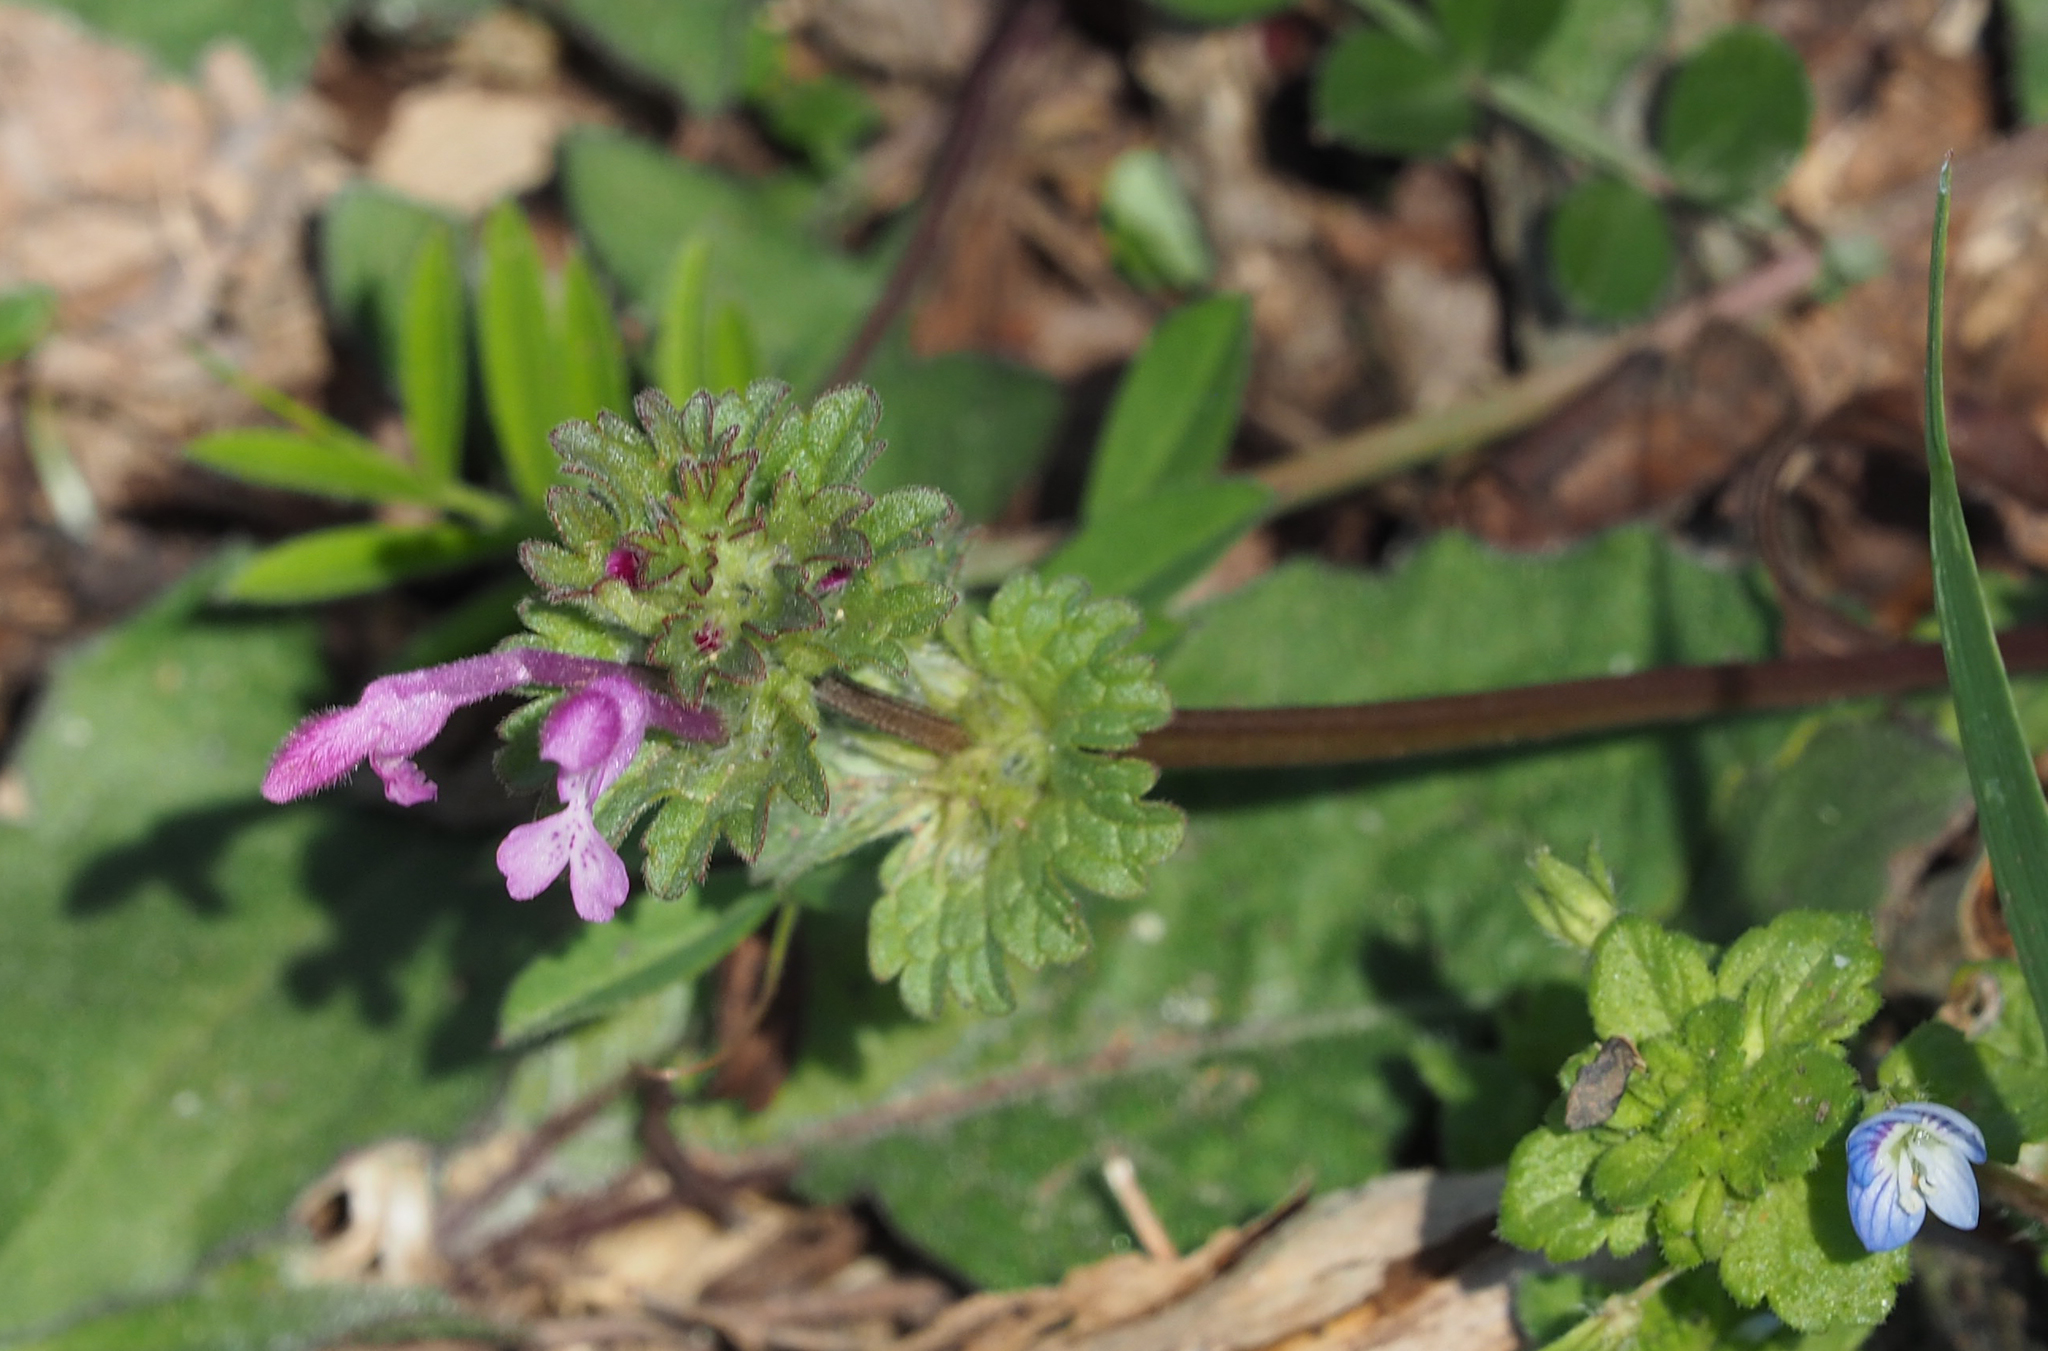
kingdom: Plantae
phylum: Tracheophyta
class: Magnoliopsida
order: Lamiales
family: Lamiaceae
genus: Lamium
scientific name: Lamium amplexicaule
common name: Henbit dead-nettle
